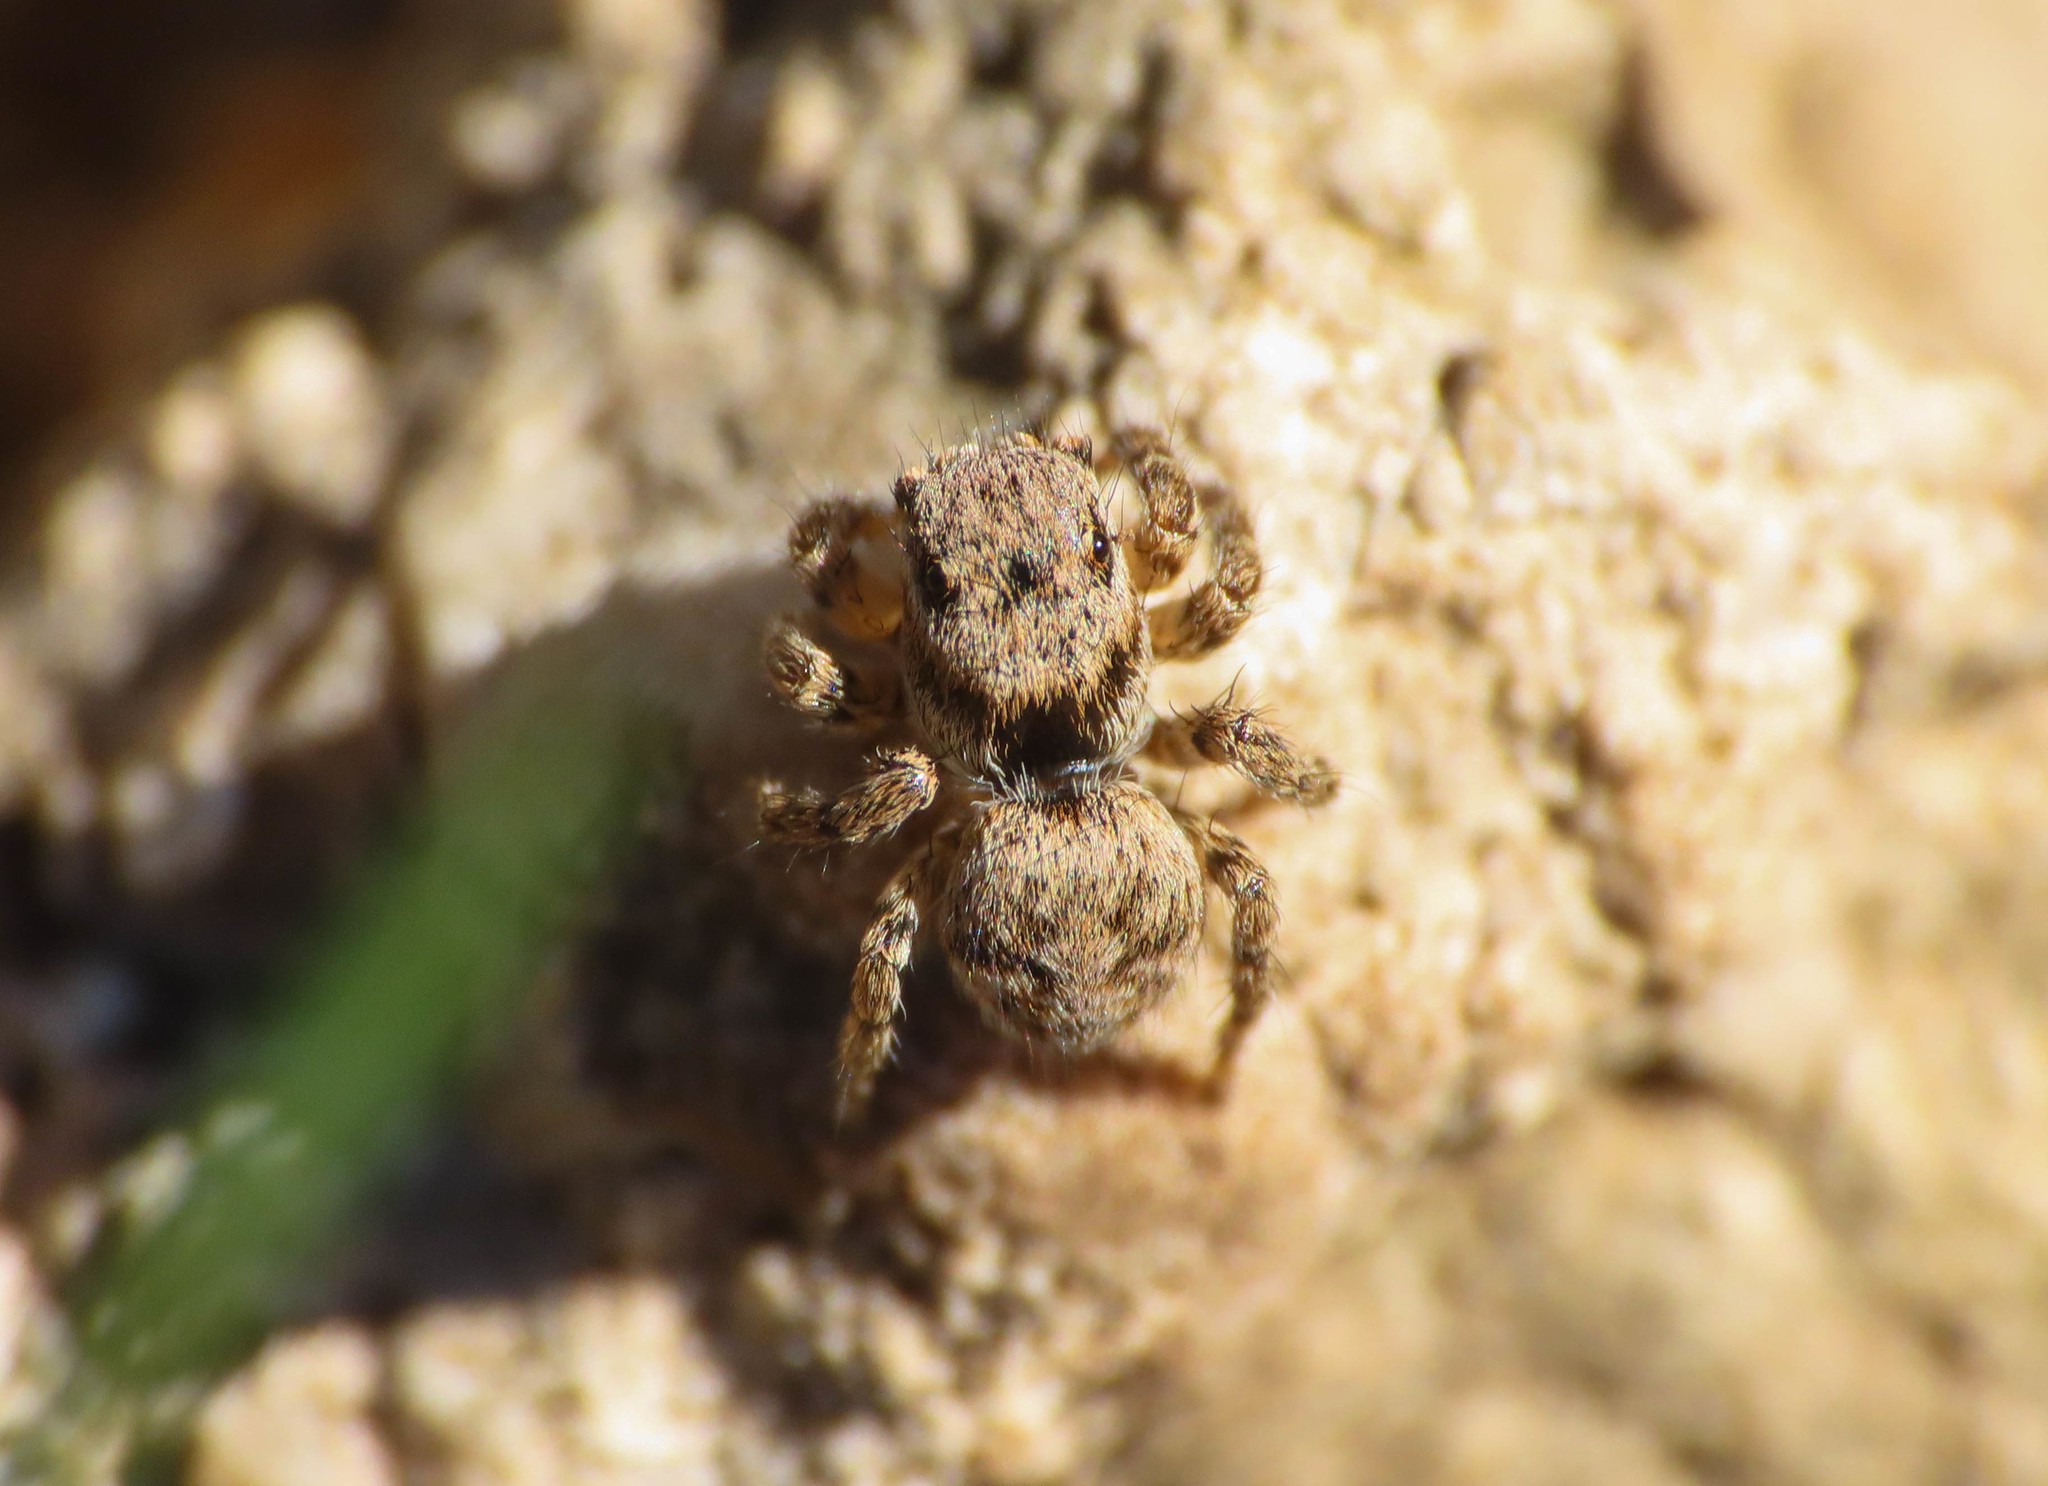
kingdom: Animalia
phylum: Arthropoda
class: Arachnida
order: Araneae
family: Salticidae
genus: Aelurillus
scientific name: Aelurillus v-insignitus
